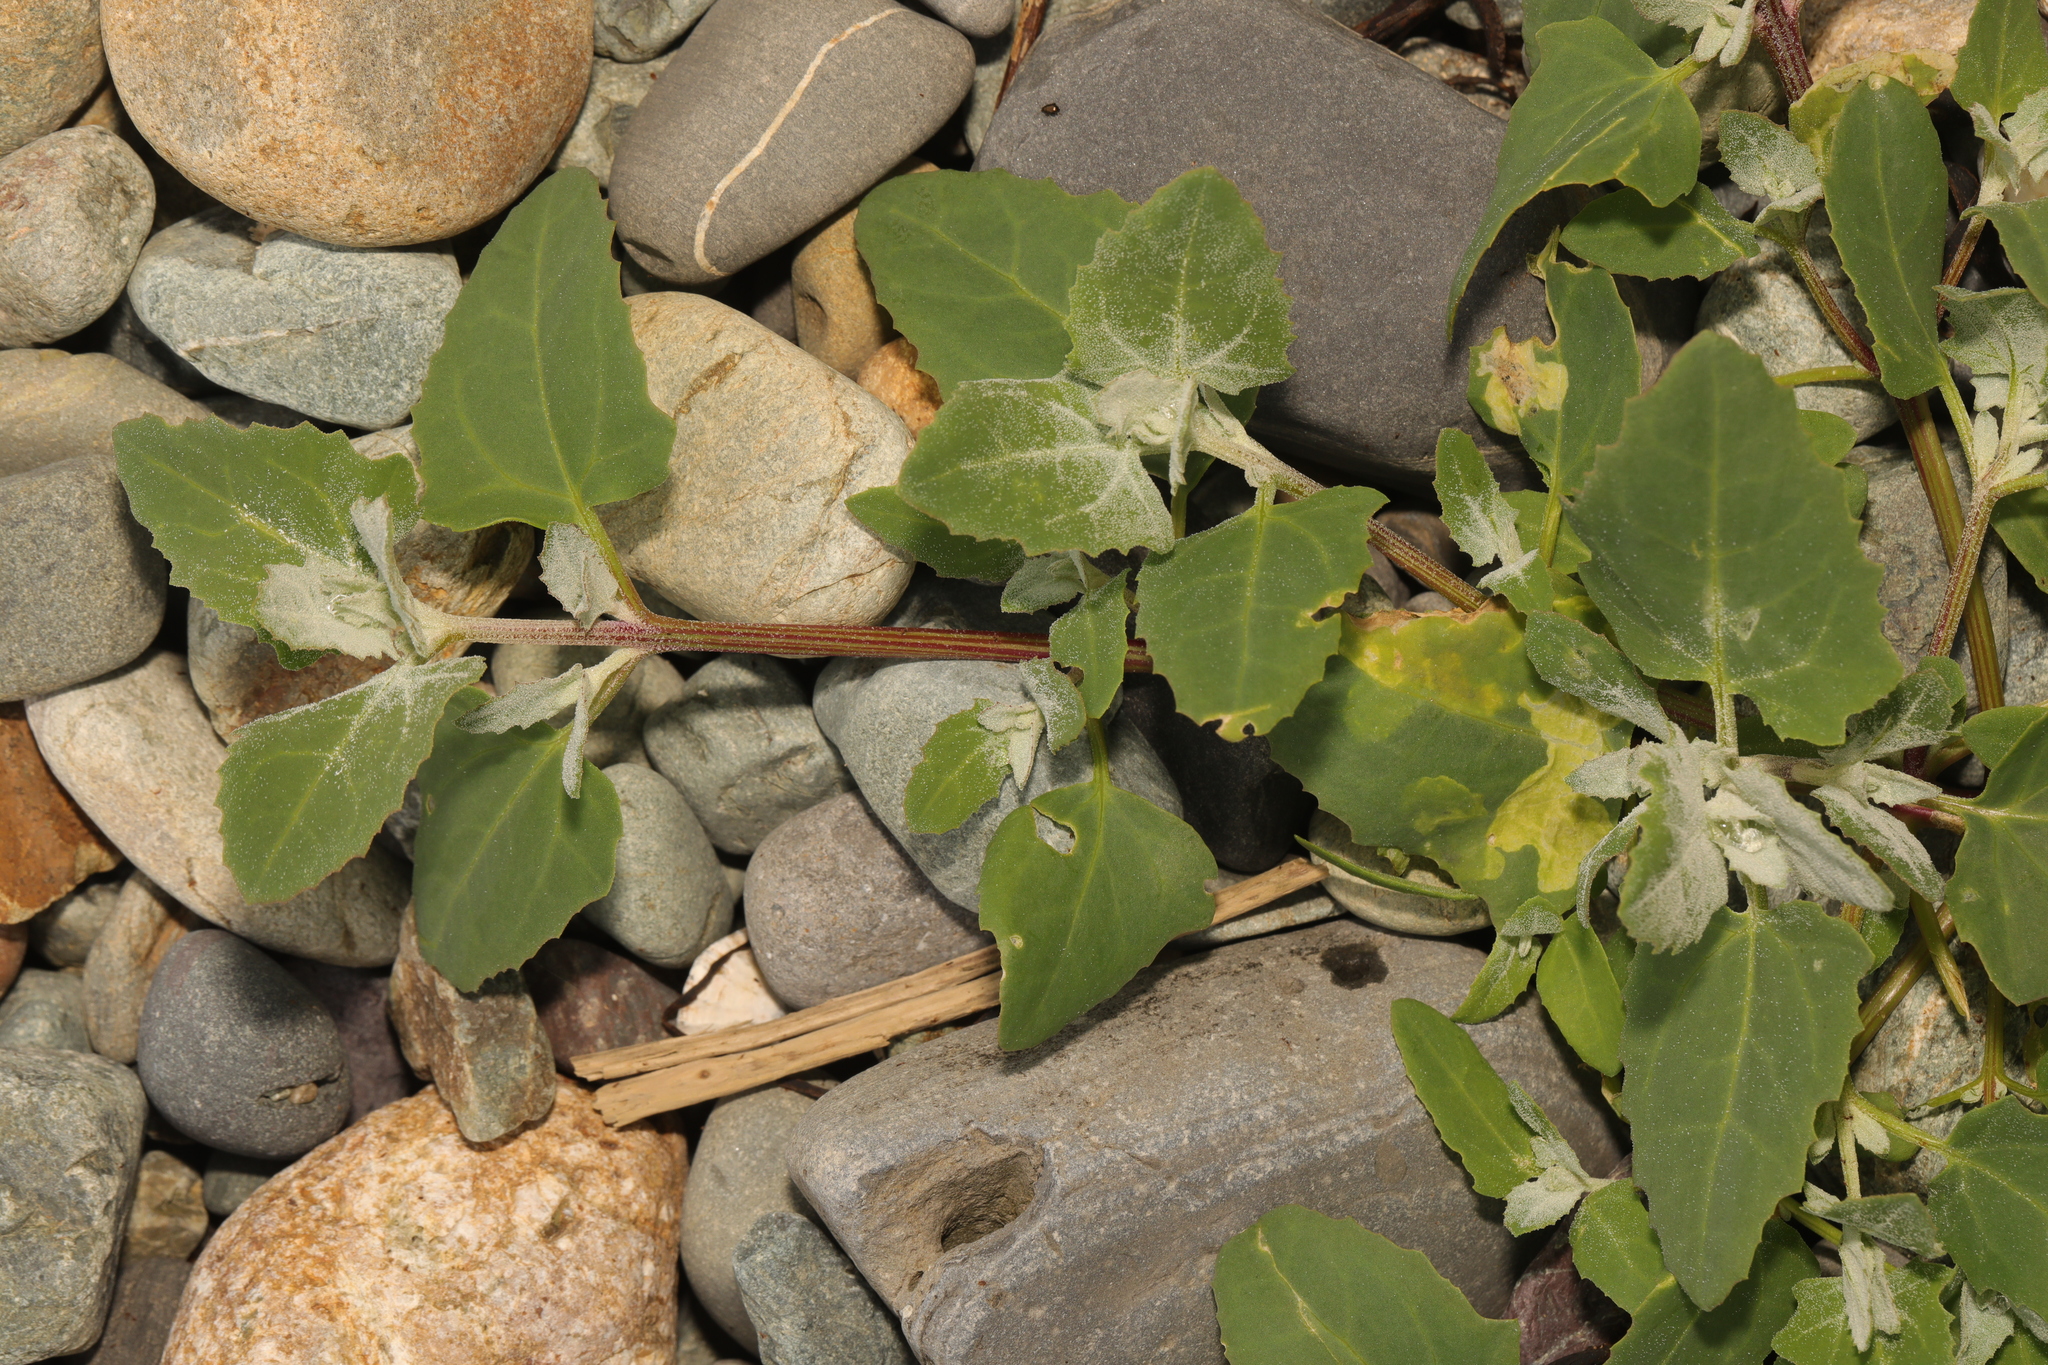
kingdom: Plantae
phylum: Tracheophyta
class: Magnoliopsida
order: Caryophyllales
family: Amaranthaceae
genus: Atriplex
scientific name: Atriplex laciniata
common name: Frosted orache
